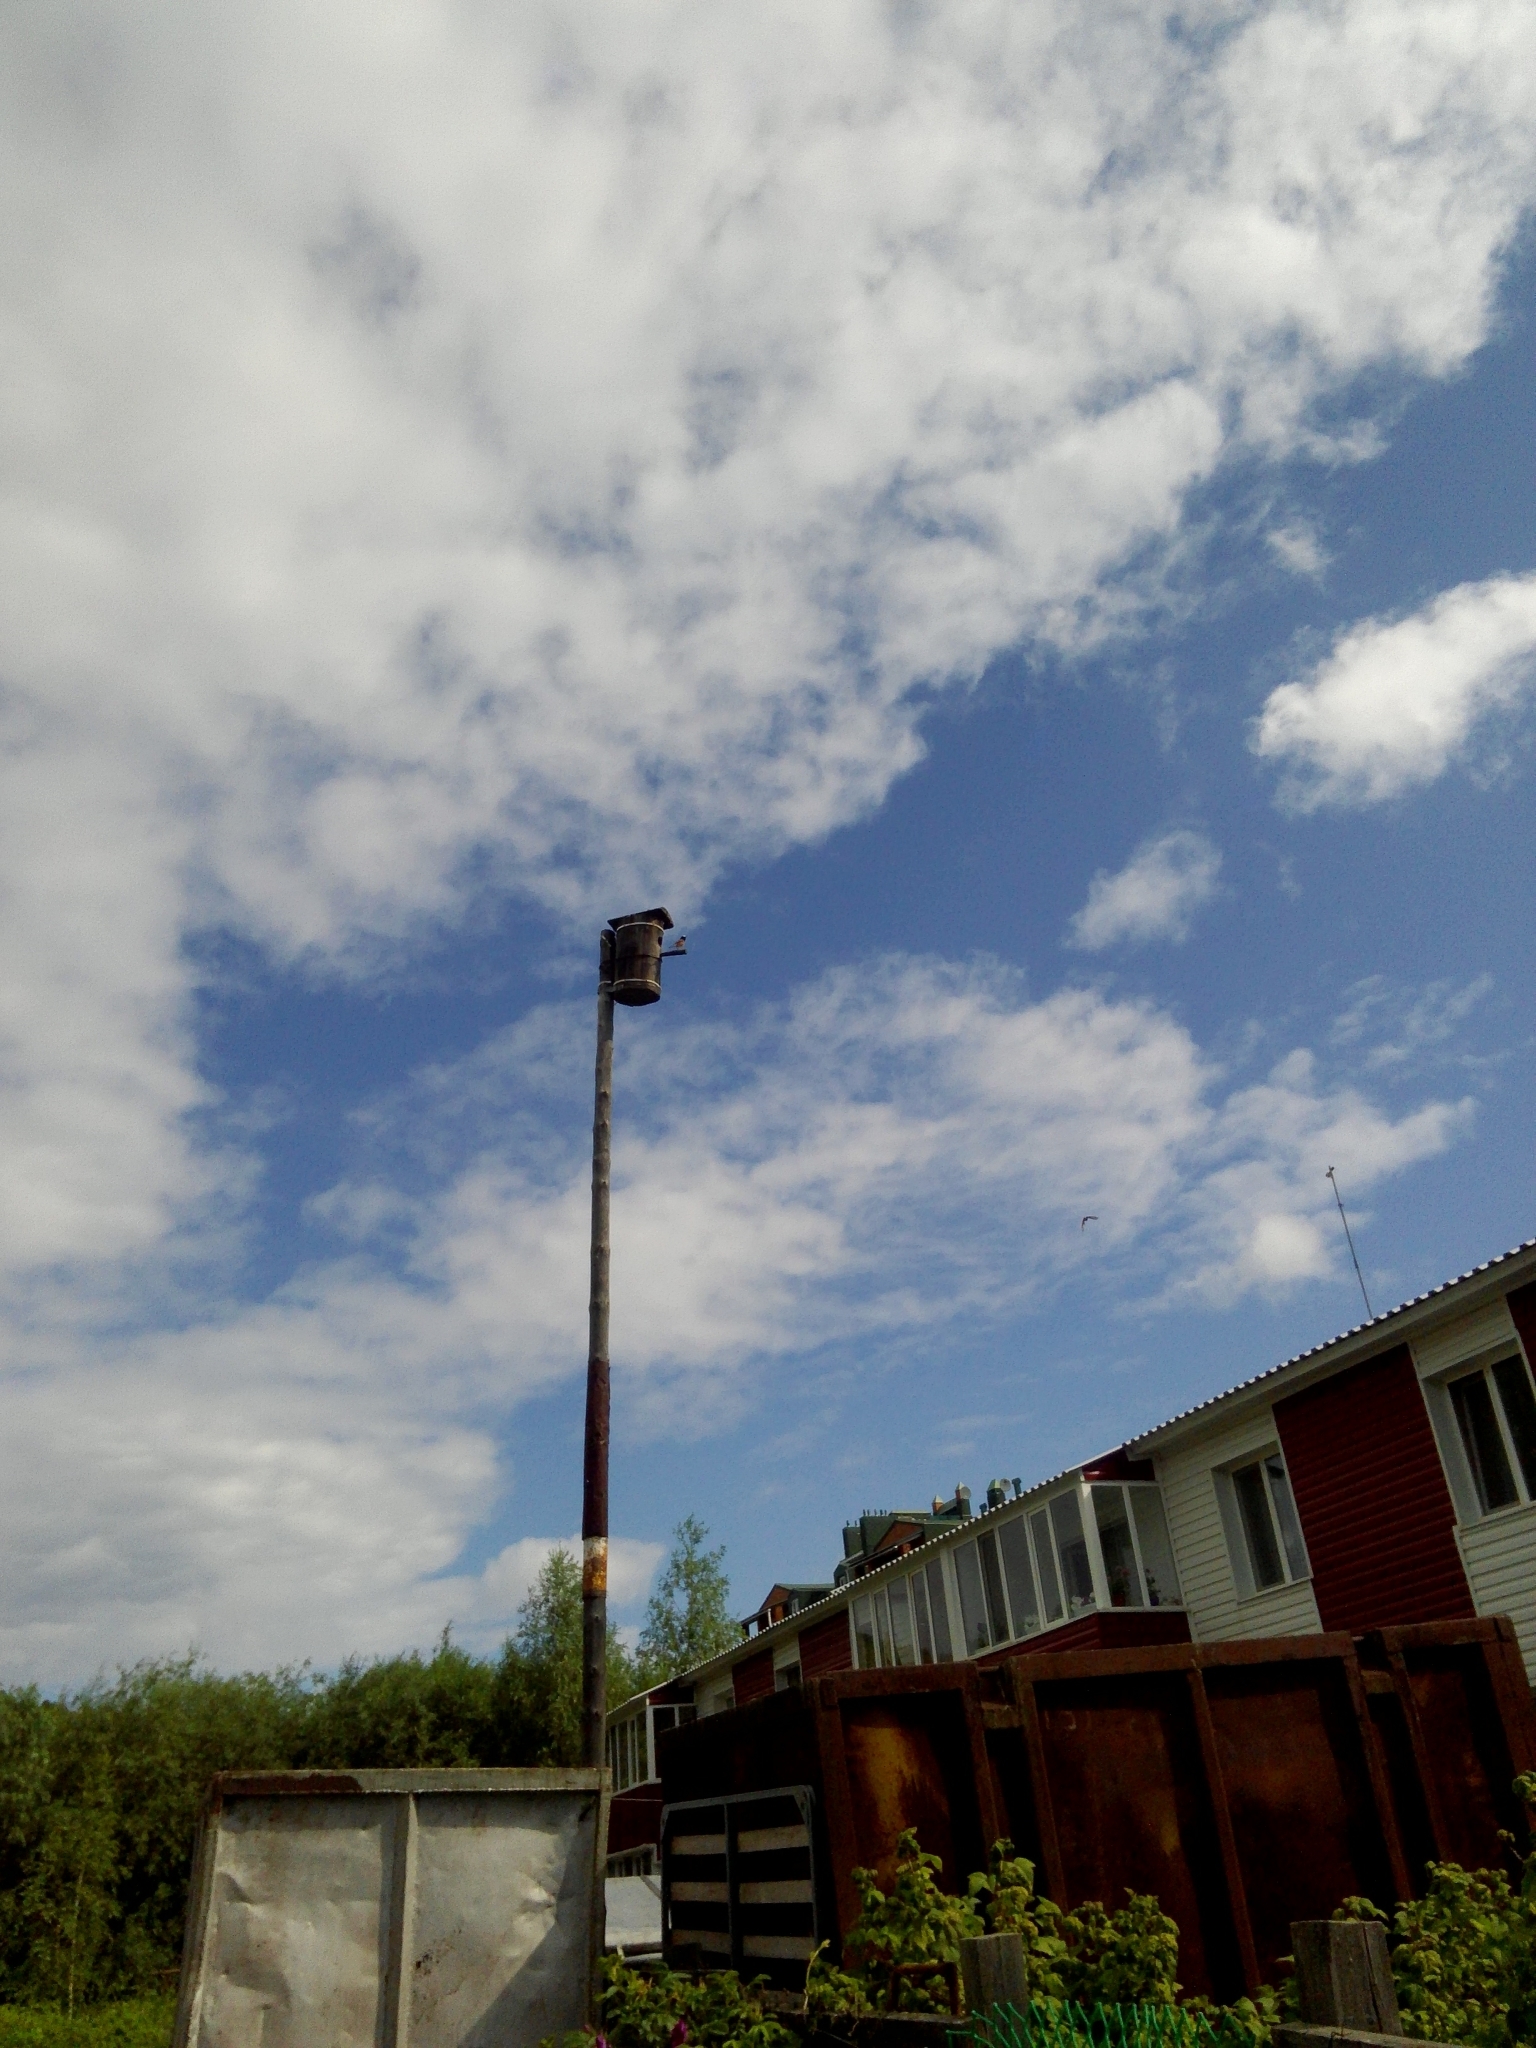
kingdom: Animalia
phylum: Chordata
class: Aves
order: Passeriformes
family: Muscicapidae
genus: Phoenicurus
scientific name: Phoenicurus phoenicurus
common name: Common redstart
